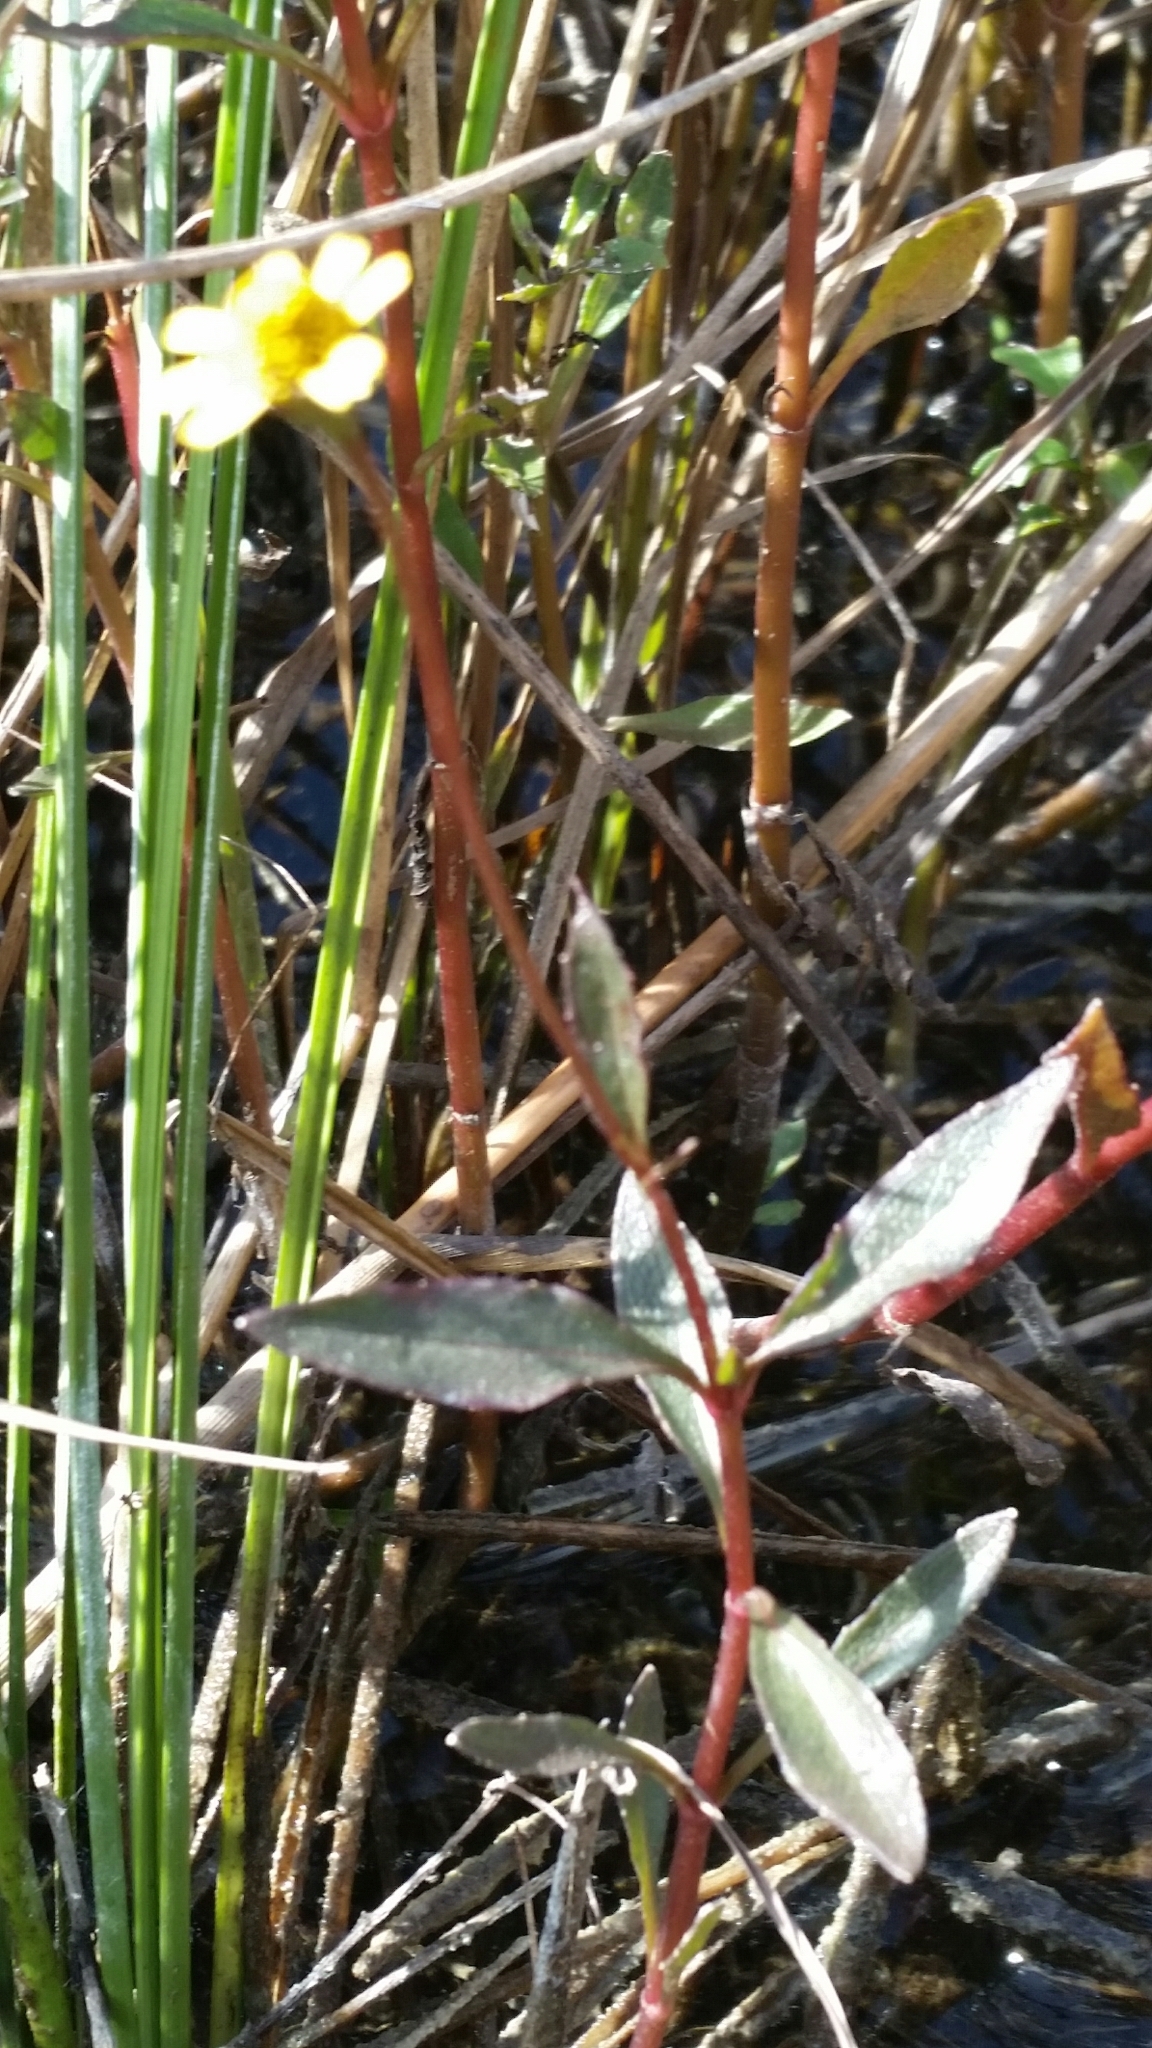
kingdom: Plantae
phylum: Tracheophyta
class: Magnoliopsida
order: Asterales
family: Asteraceae
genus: Acmella
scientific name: Acmella repens
